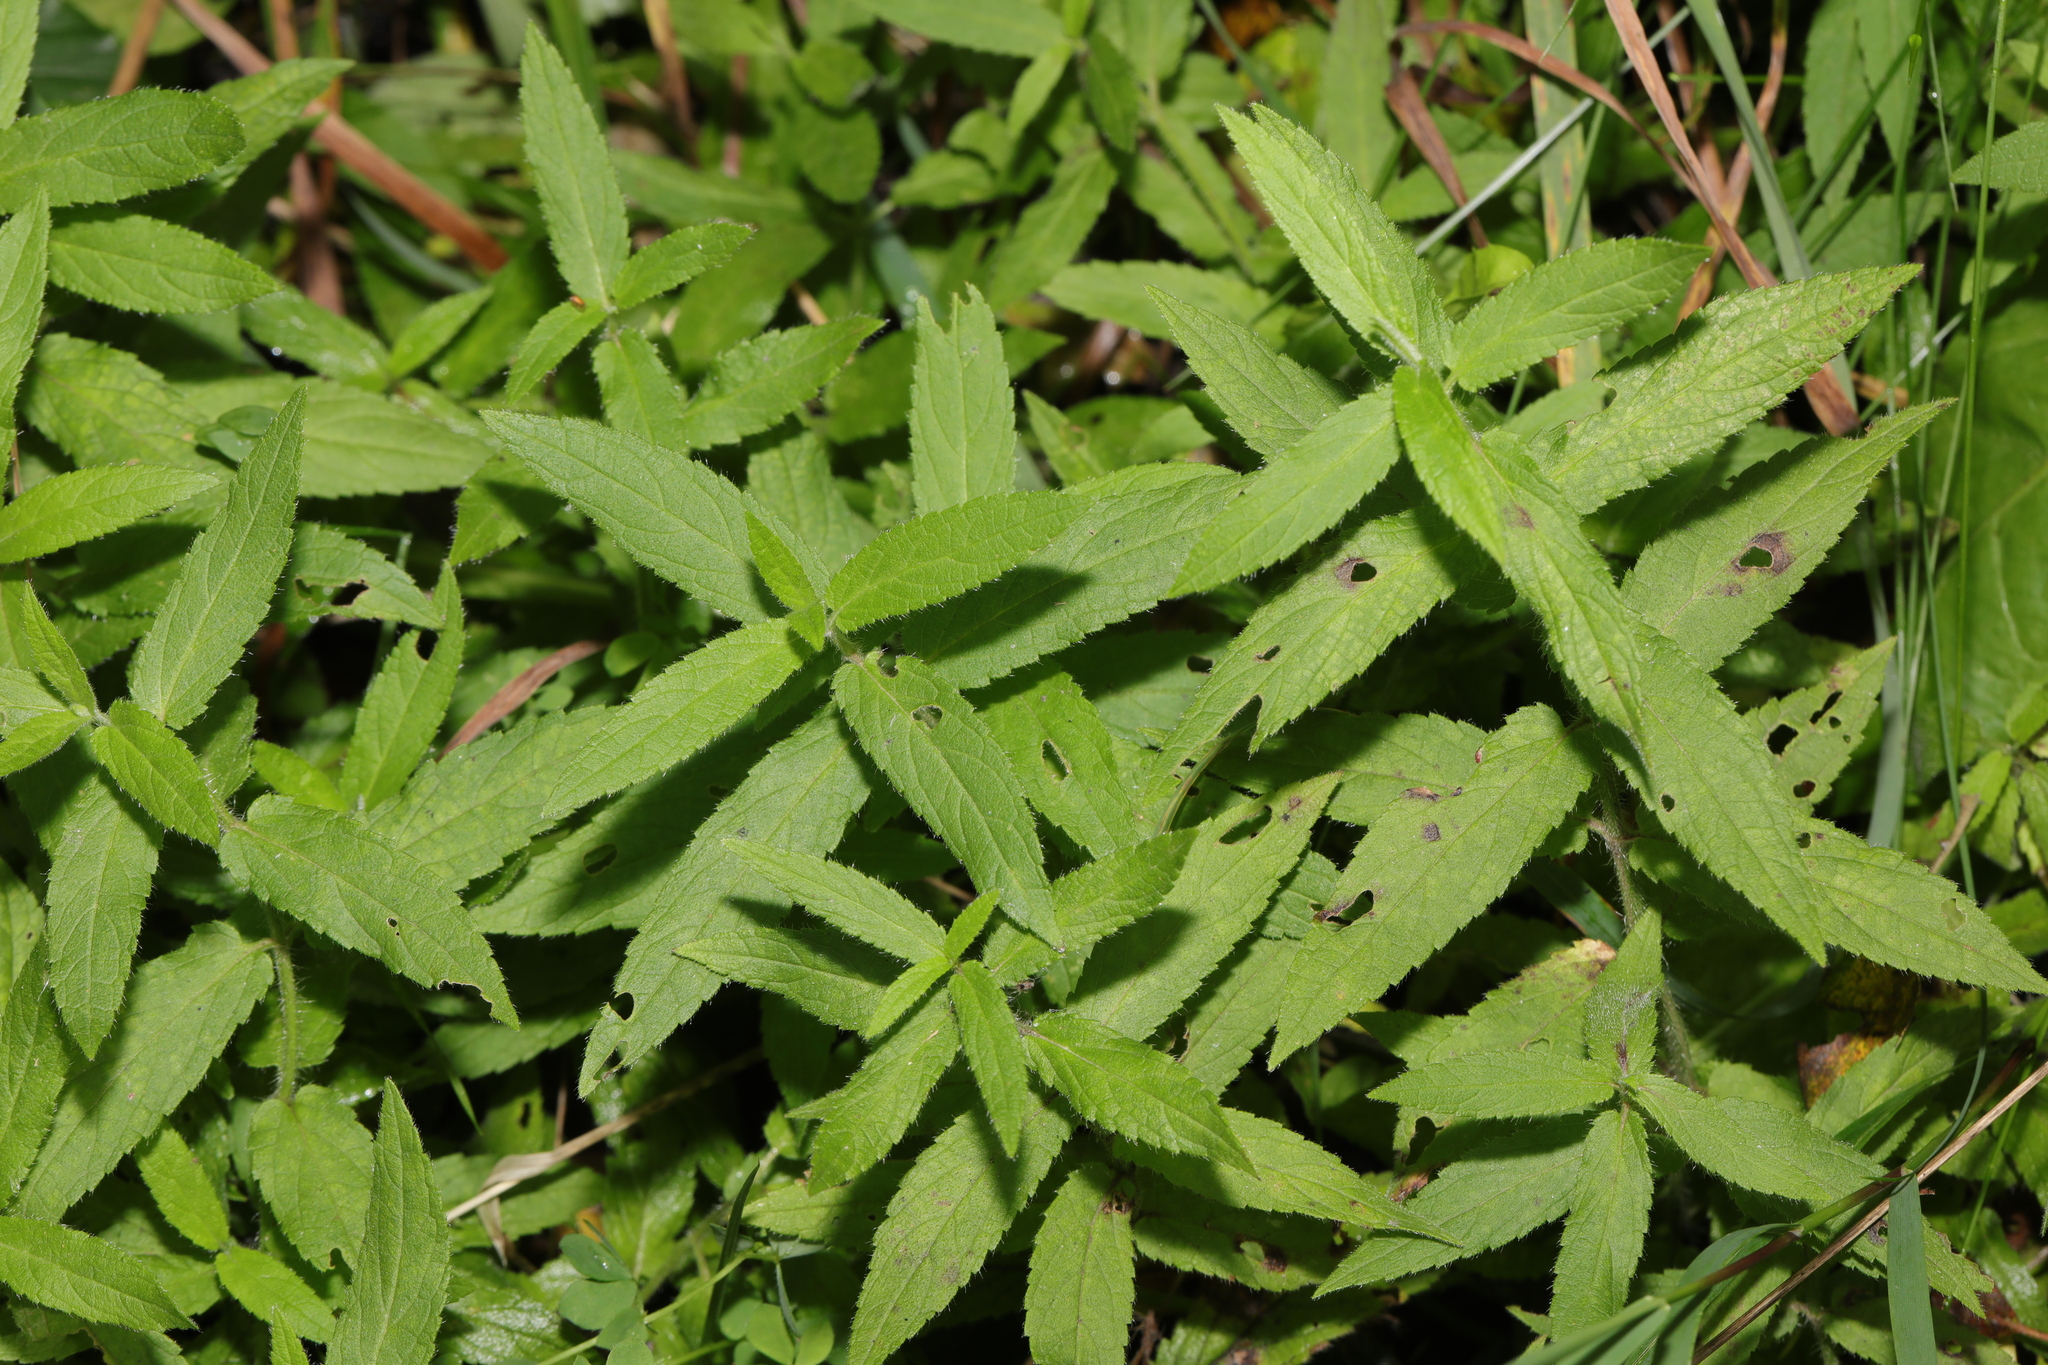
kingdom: Plantae
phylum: Tracheophyta
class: Magnoliopsida
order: Lamiales
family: Lamiaceae
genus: Stachys
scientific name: Stachys palustris
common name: Marsh woundwort
